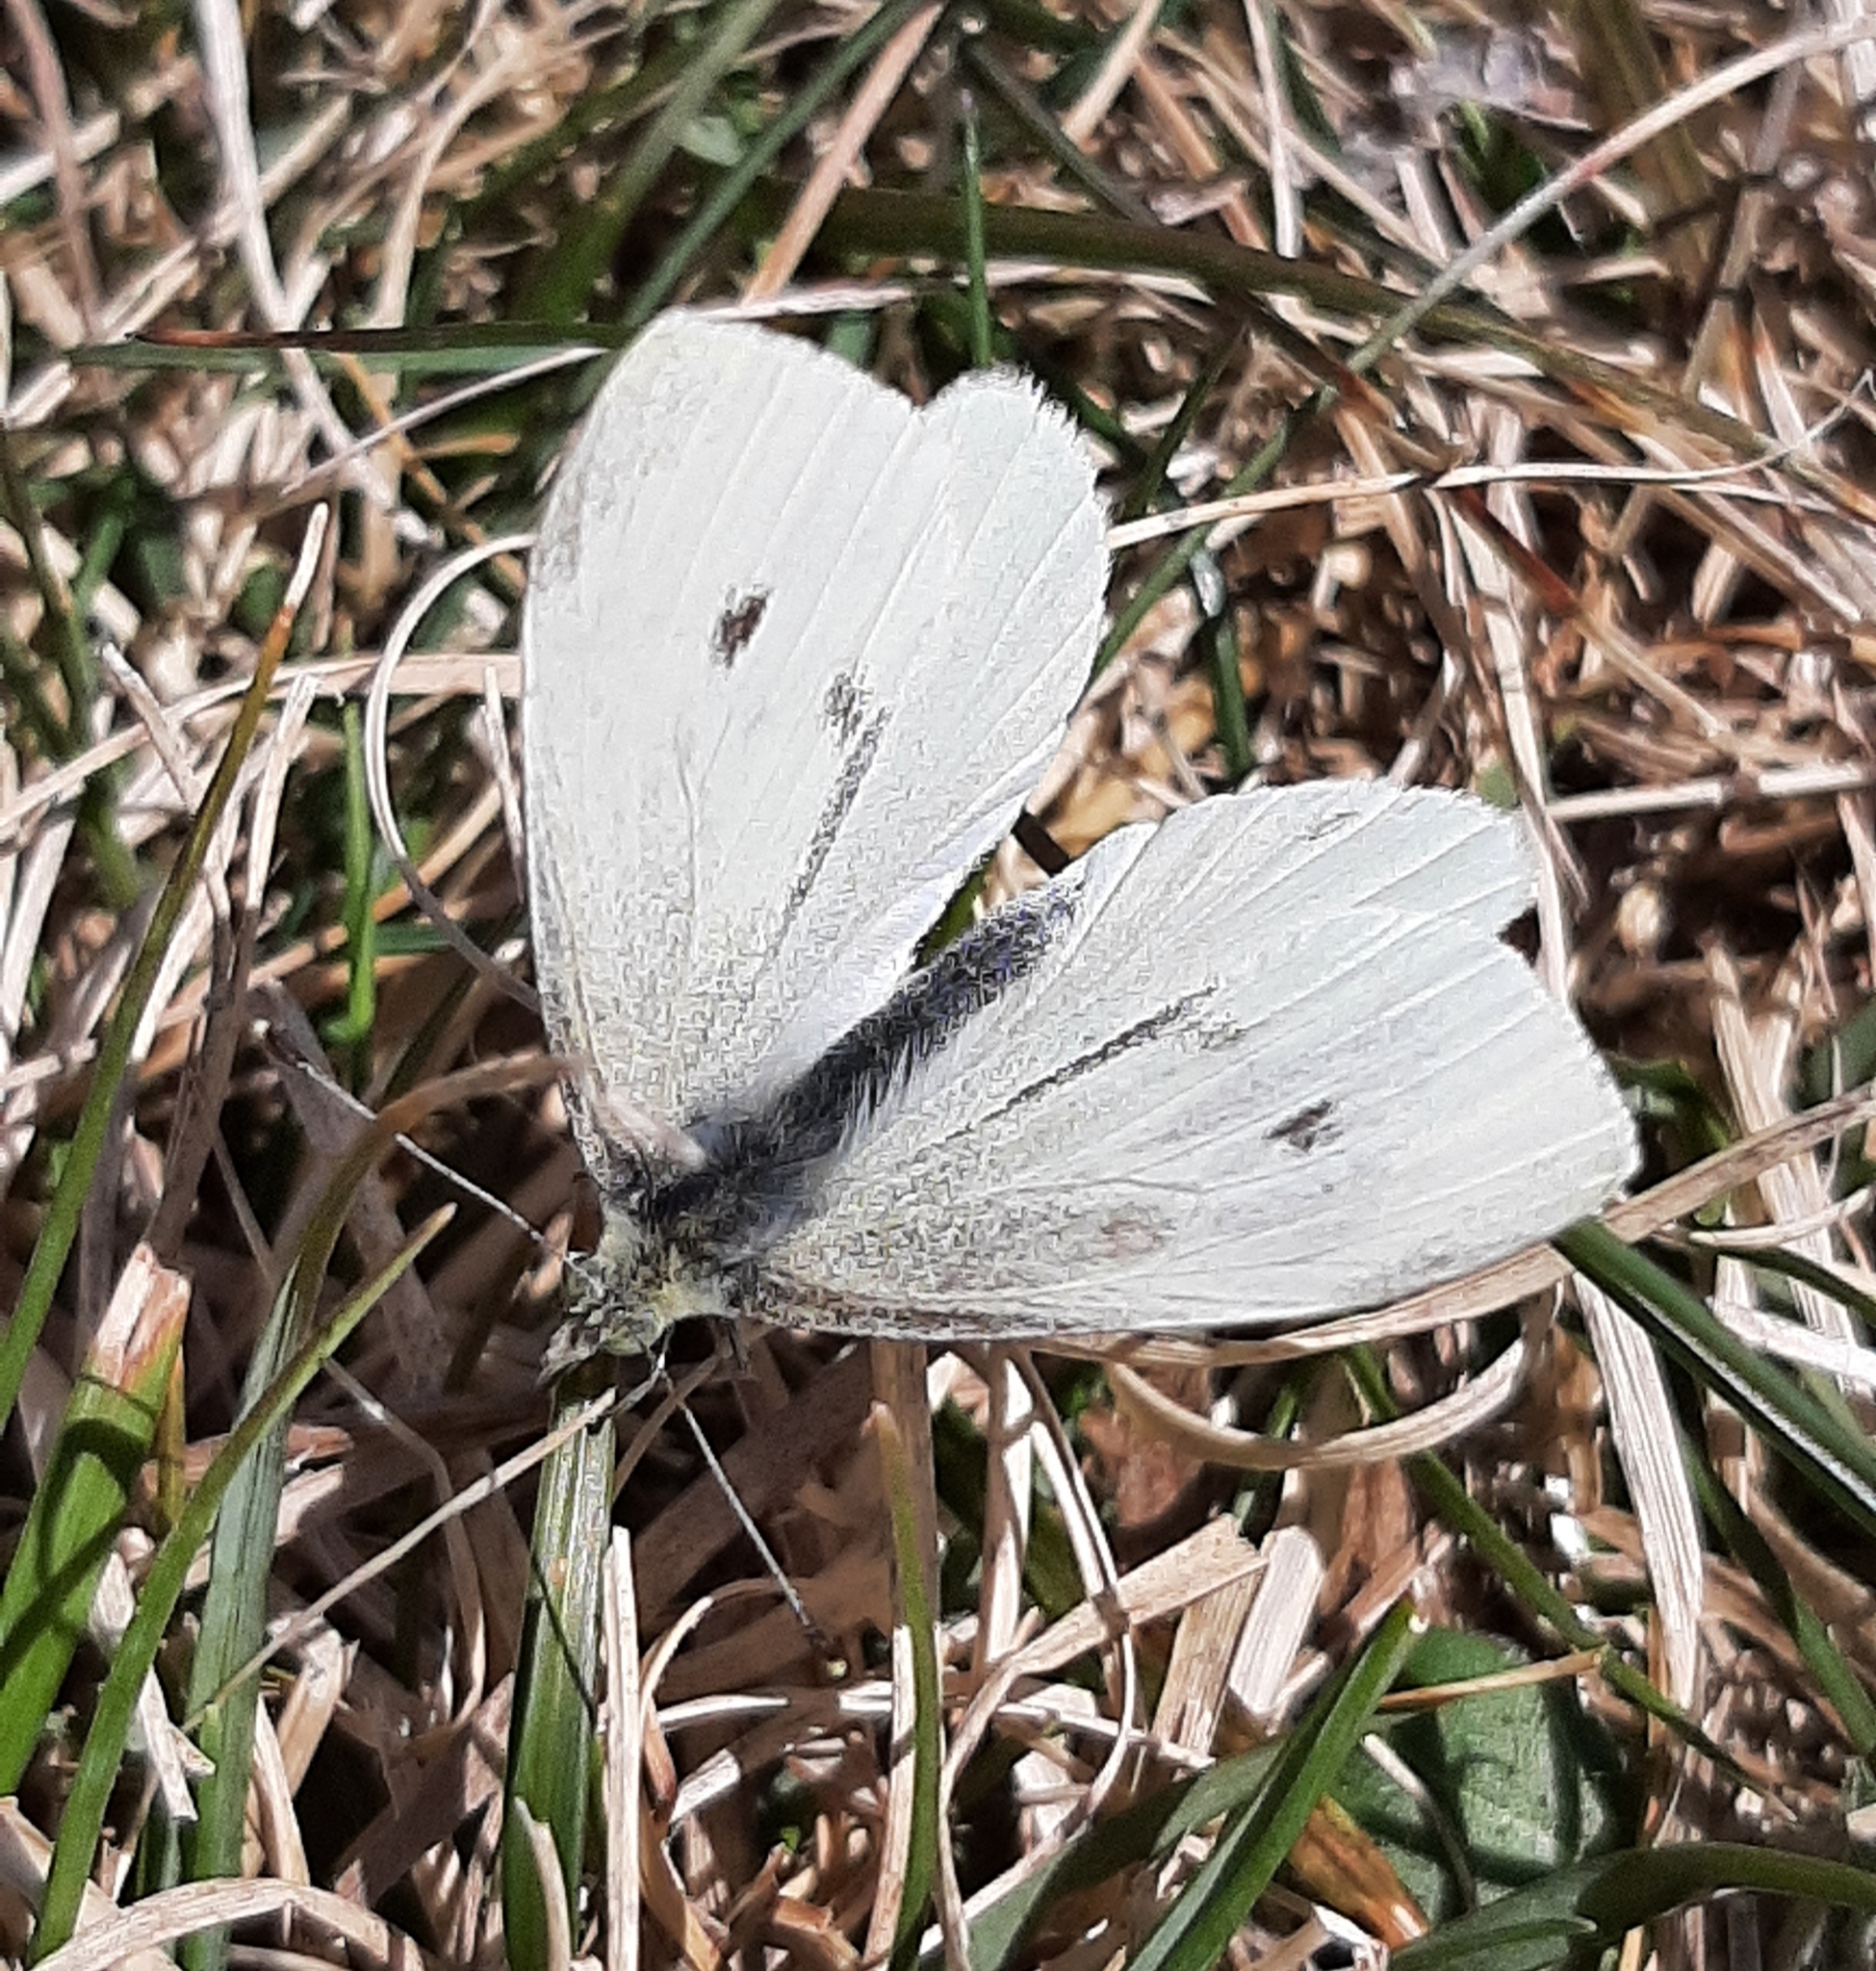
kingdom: Animalia
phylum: Arthropoda
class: Insecta
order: Lepidoptera
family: Pieridae
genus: Pieris
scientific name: Pieris rapae
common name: Small white
